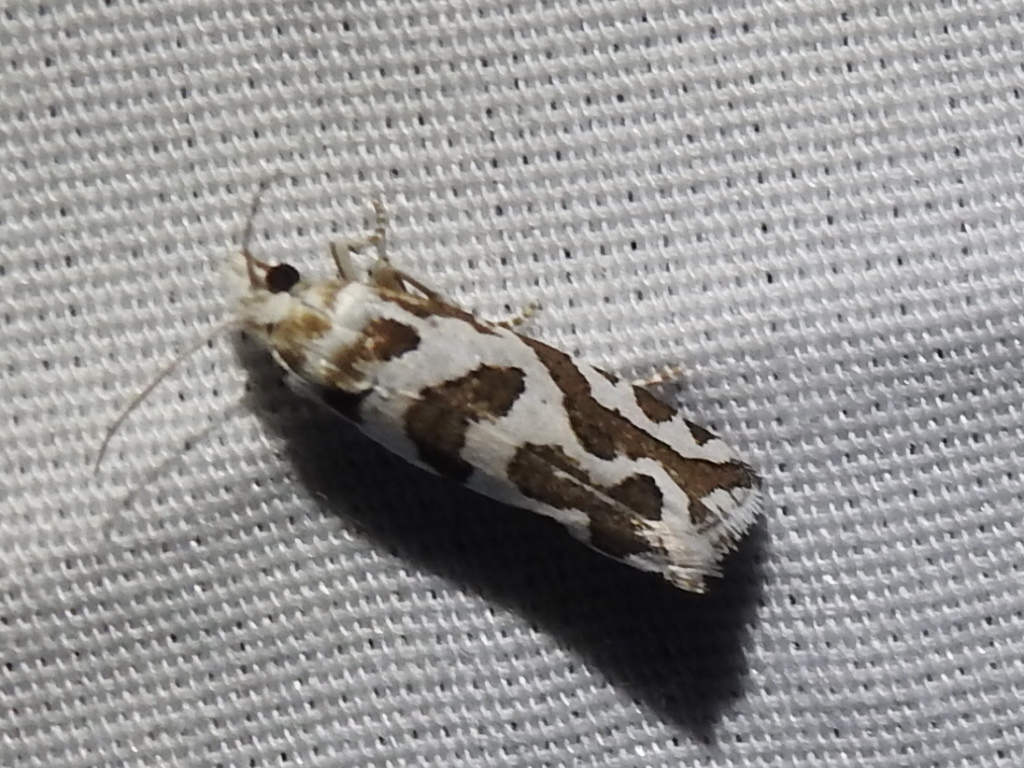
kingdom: Animalia
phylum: Arthropoda
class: Insecta
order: Lepidoptera
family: Tortricidae
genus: Pelochrista
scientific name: Pelochrista bolanderana
